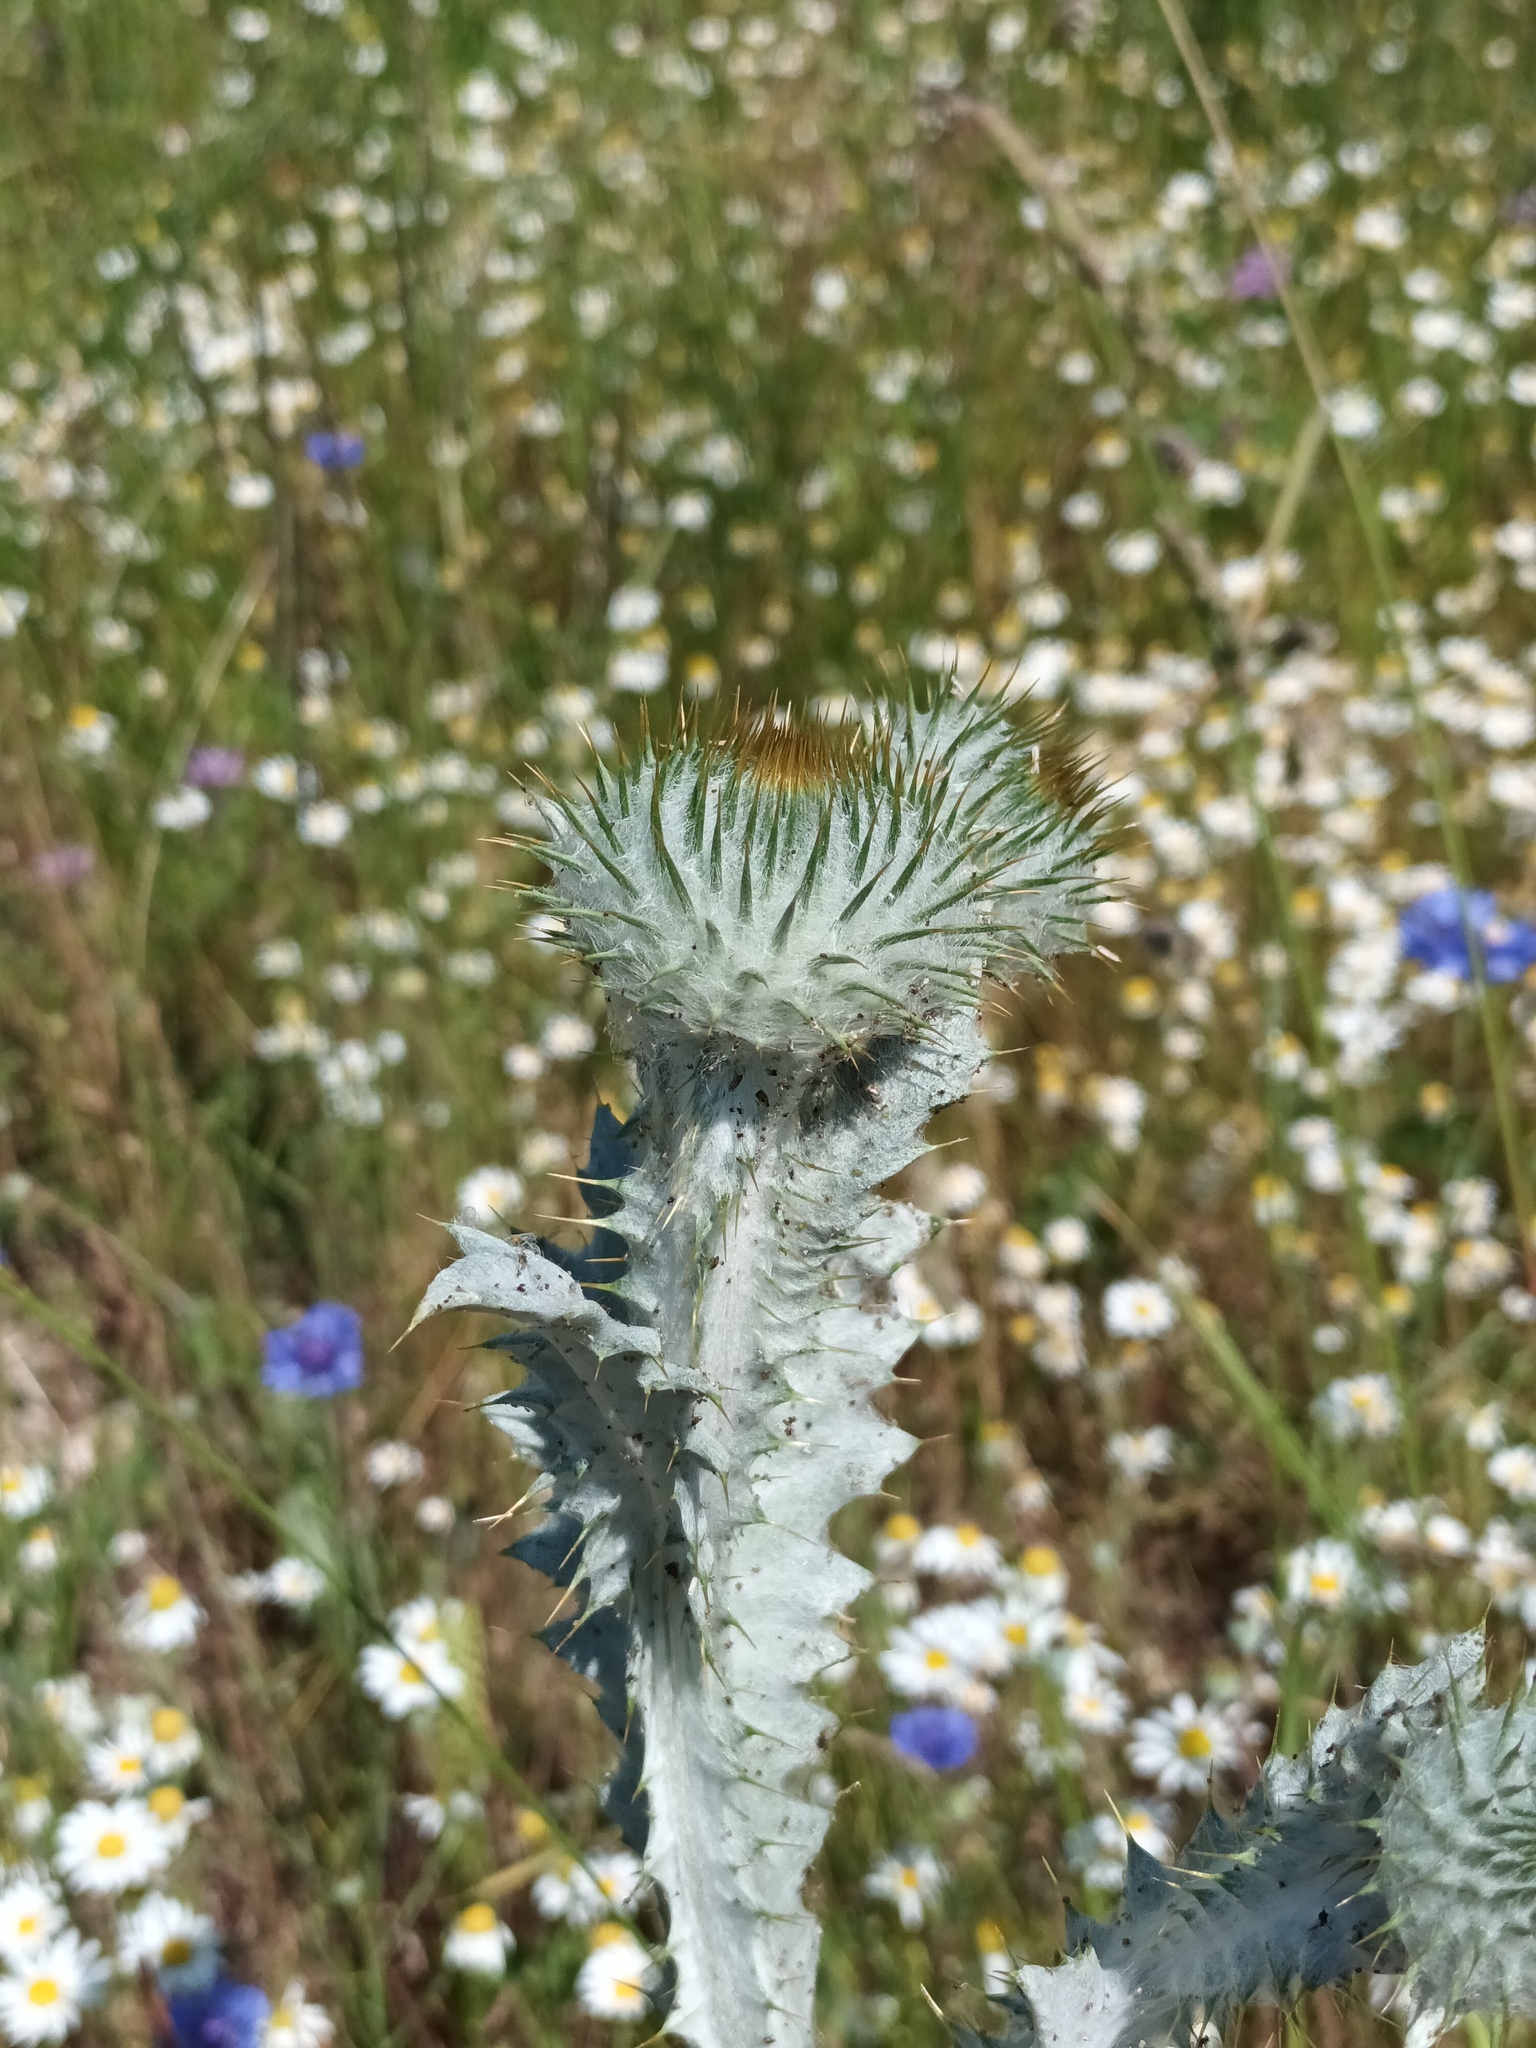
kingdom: Plantae
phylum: Tracheophyta
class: Magnoliopsida
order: Asterales
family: Asteraceae
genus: Onopordum
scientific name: Onopordum acanthium
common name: Scotch thistle
